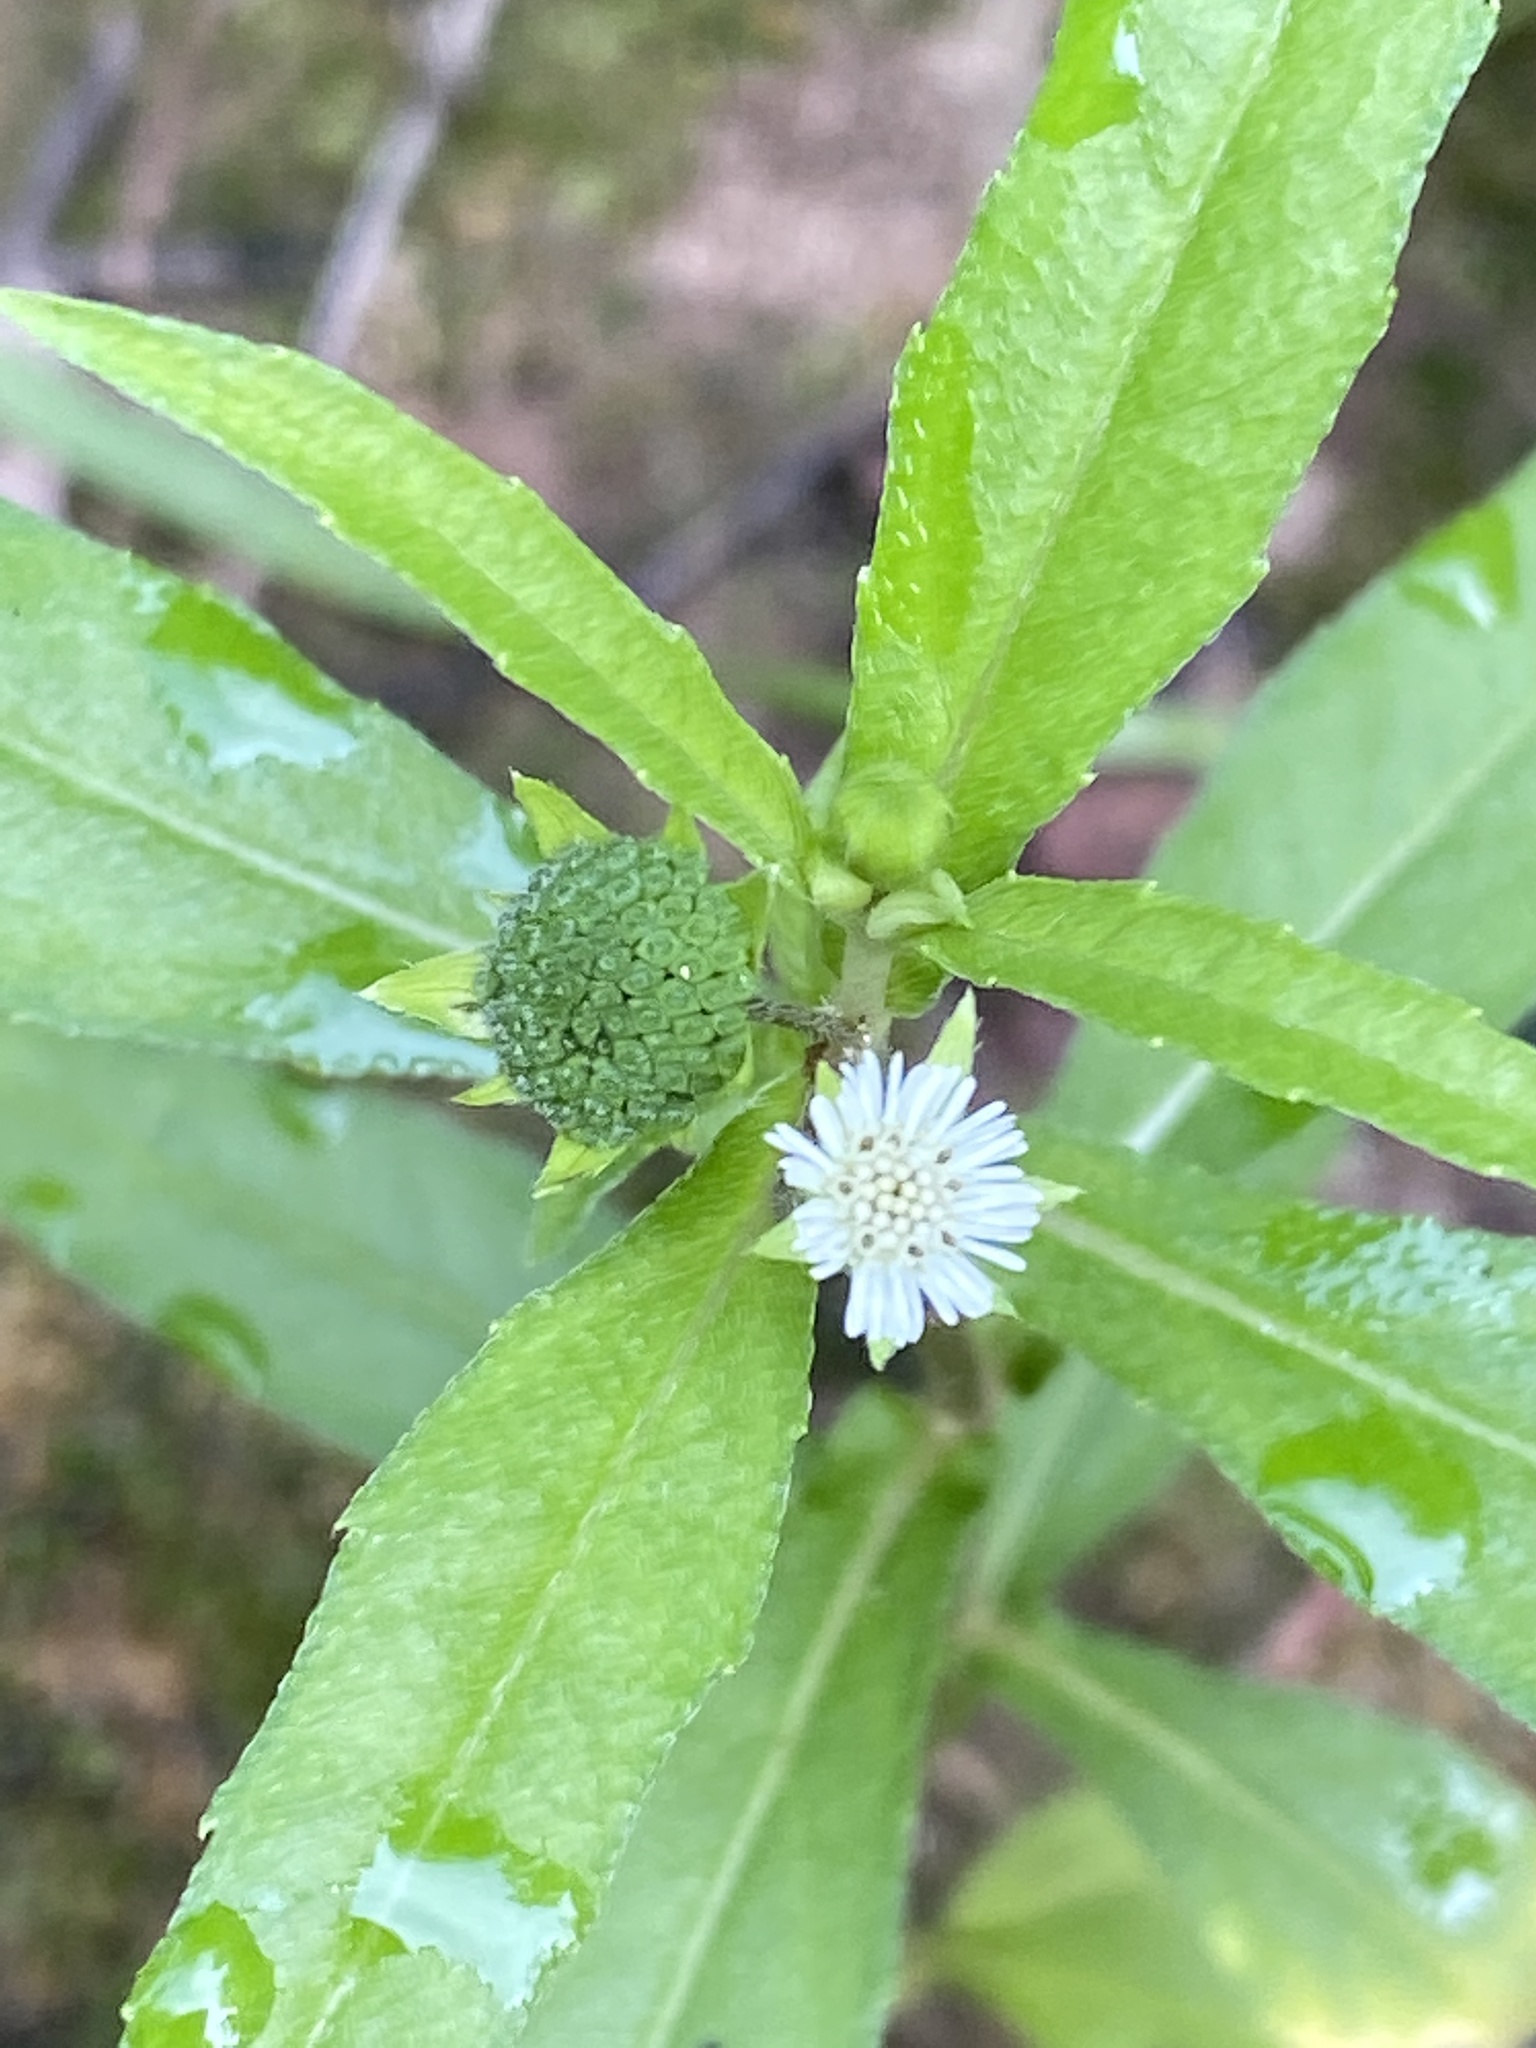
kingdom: Plantae
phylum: Tracheophyta
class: Magnoliopsida
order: Asterales
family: Asteraceae
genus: Eclipta
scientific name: Eclipta prostrata
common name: False daisy
